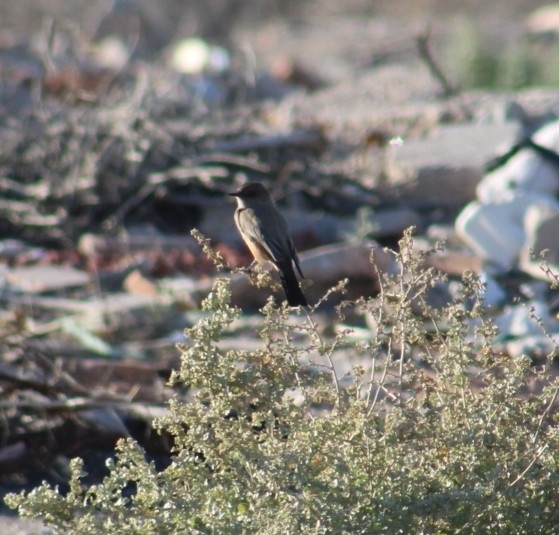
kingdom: Animalia
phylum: Chordata
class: Aves
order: Passeriformes
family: Tyrannidae
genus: Sayornis
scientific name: Sayornis saya
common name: Say's phoebe
